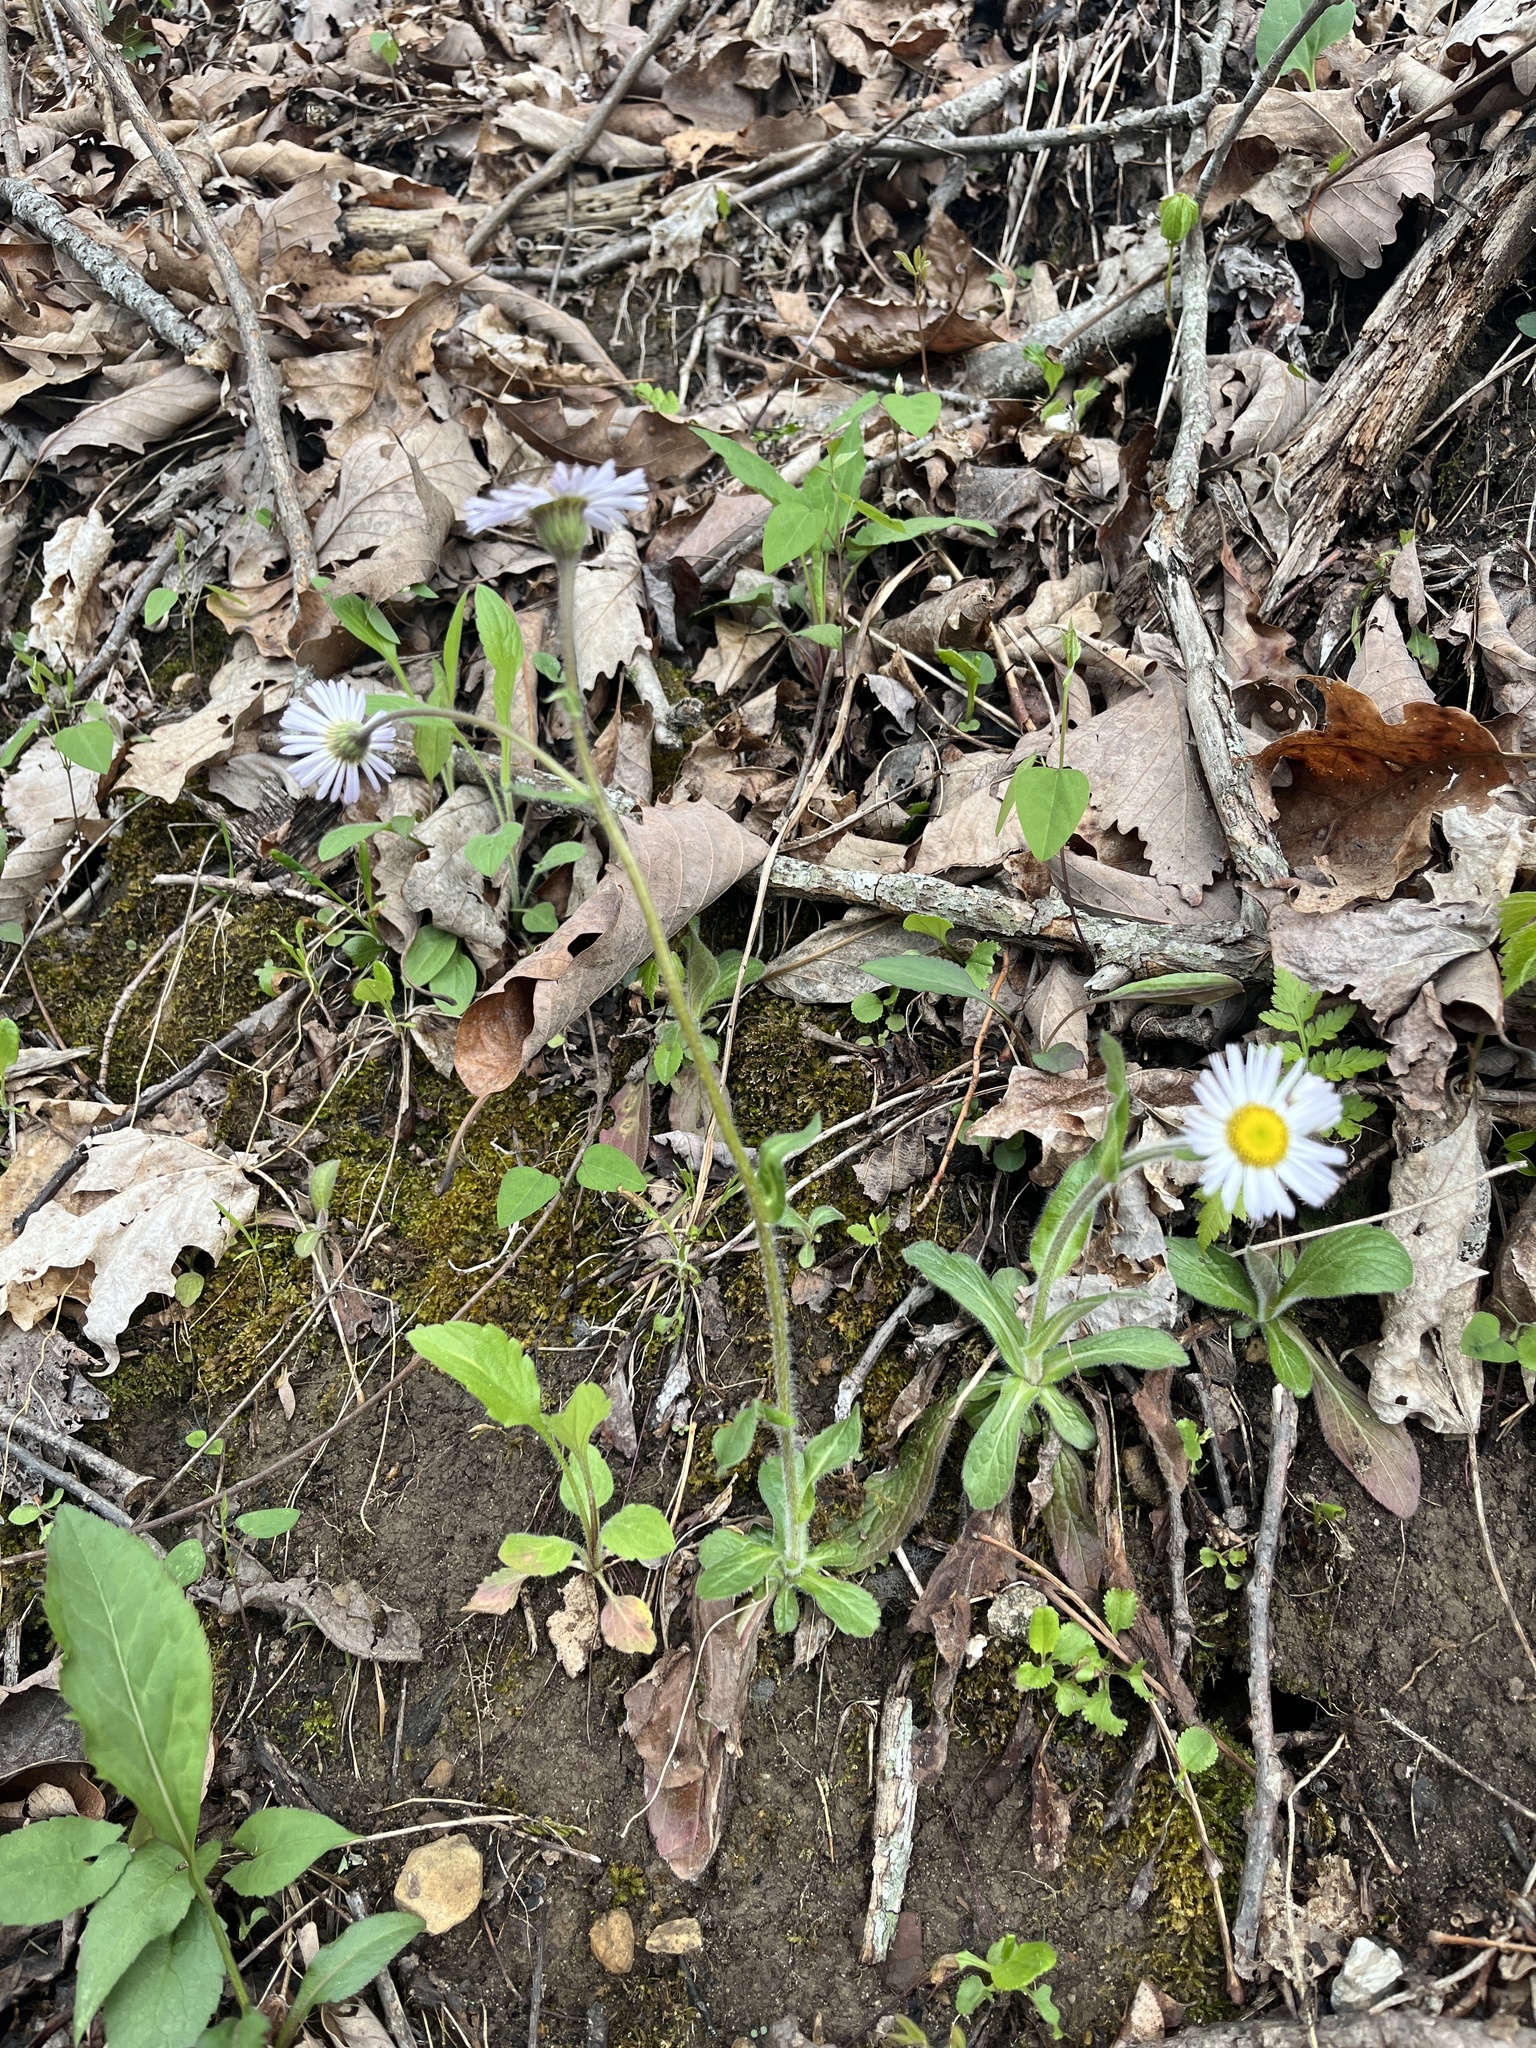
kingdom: Plantae
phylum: Tracheophyta
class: Magnoliopsida
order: Asterales
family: Asteraceae
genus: Erigeron
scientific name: Erigeron pulchellus
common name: Hairy fleabane
